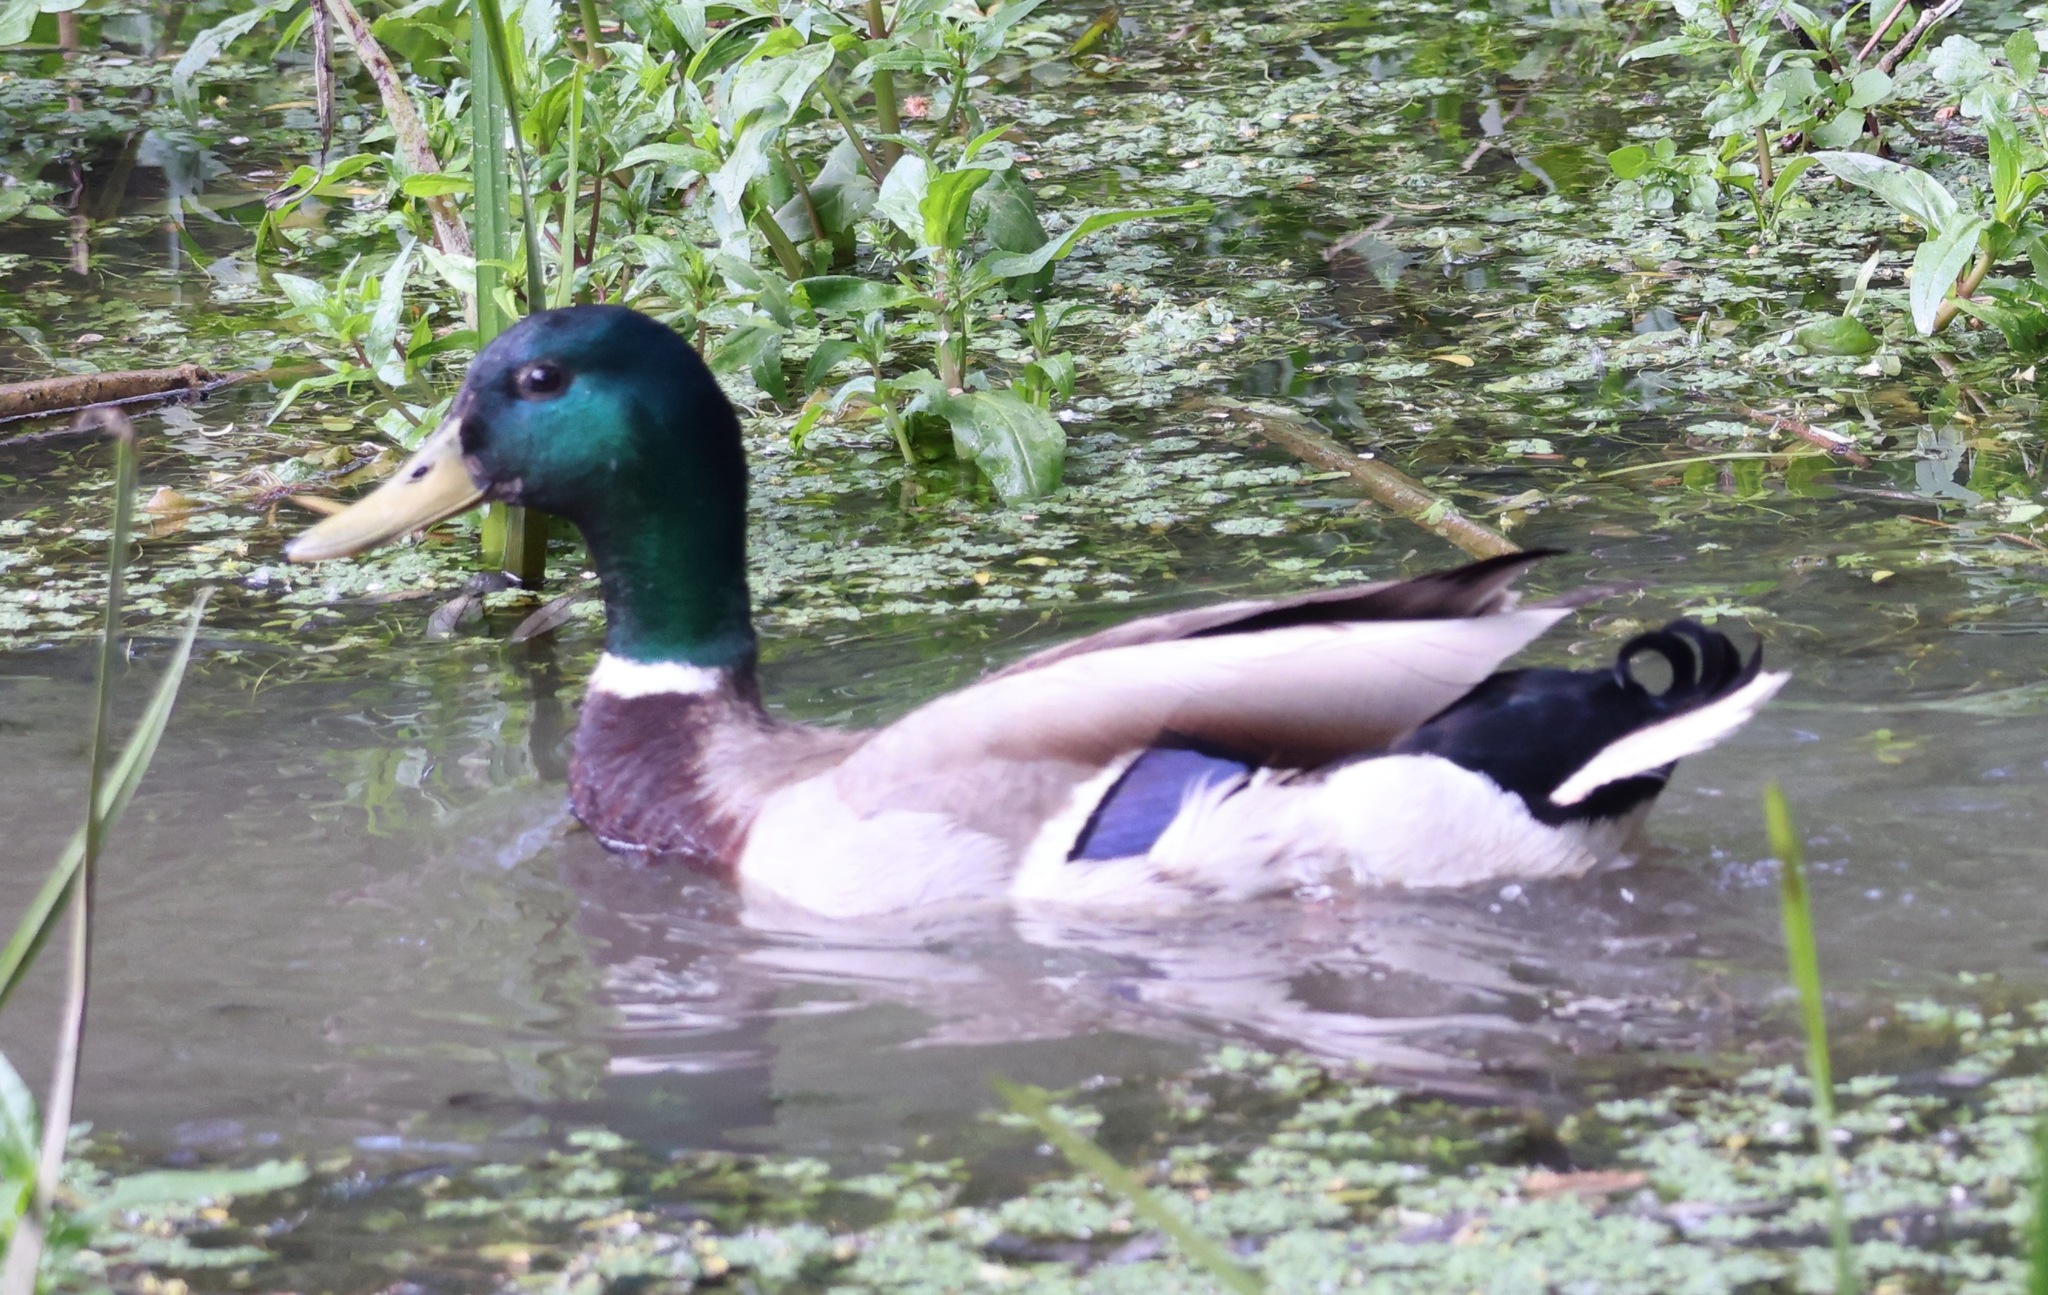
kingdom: Animalia
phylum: Chordata
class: Aves
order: Anseriformes
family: Anatidae
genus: Anas
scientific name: Anas platyrhynchos
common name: Mallard
